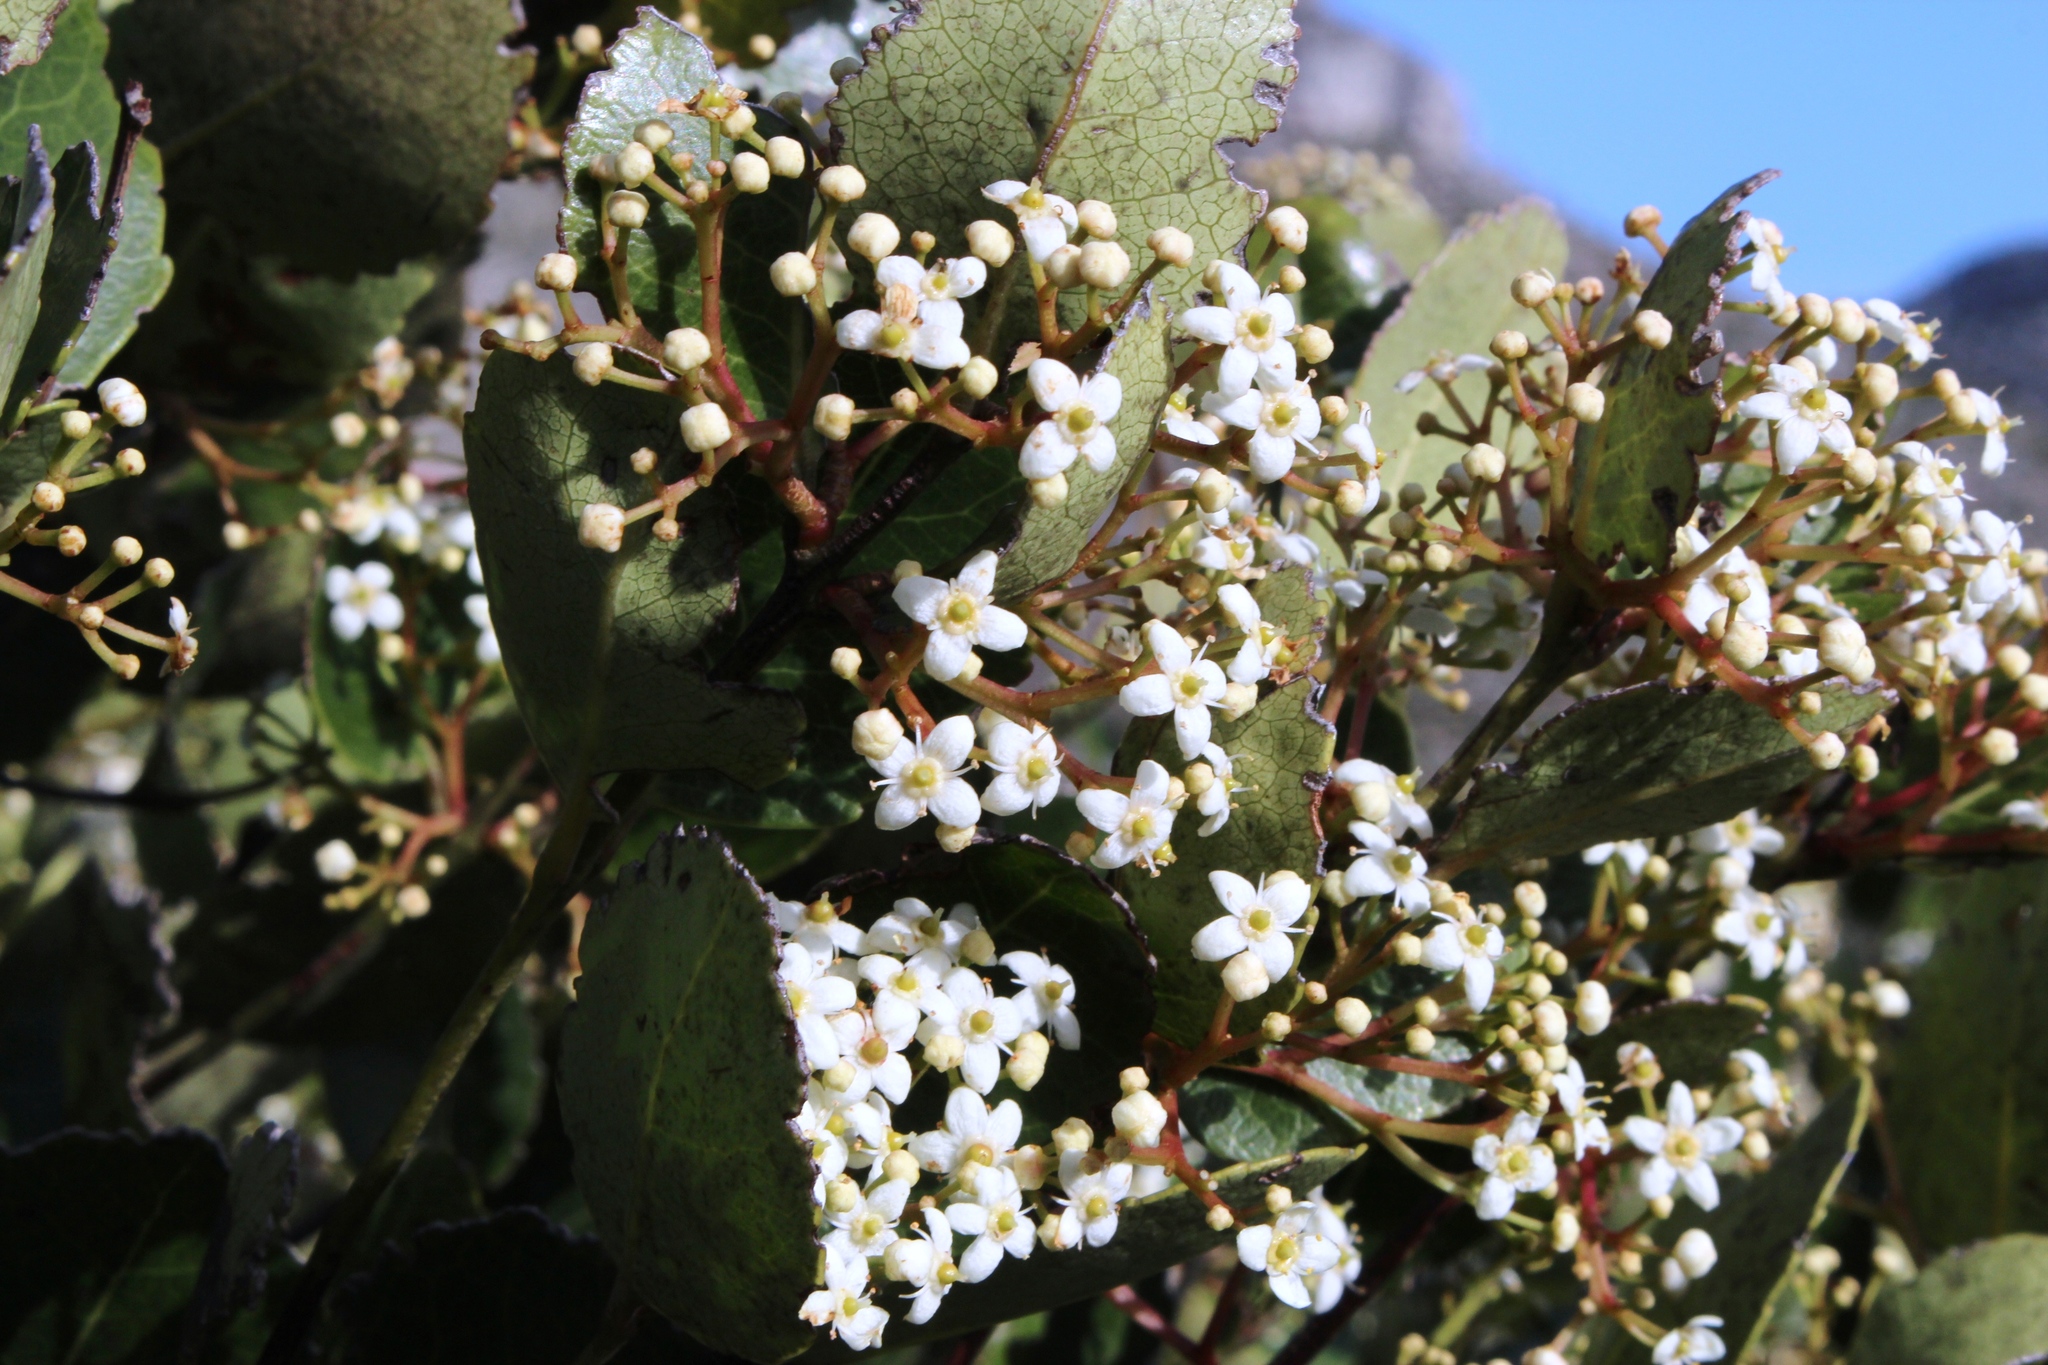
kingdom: Plantae
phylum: Tracheophyta
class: Magnoliopsida
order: Celastrales
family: Celastraceae
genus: Cassine
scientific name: Cassine peragua
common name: Cape saffron
